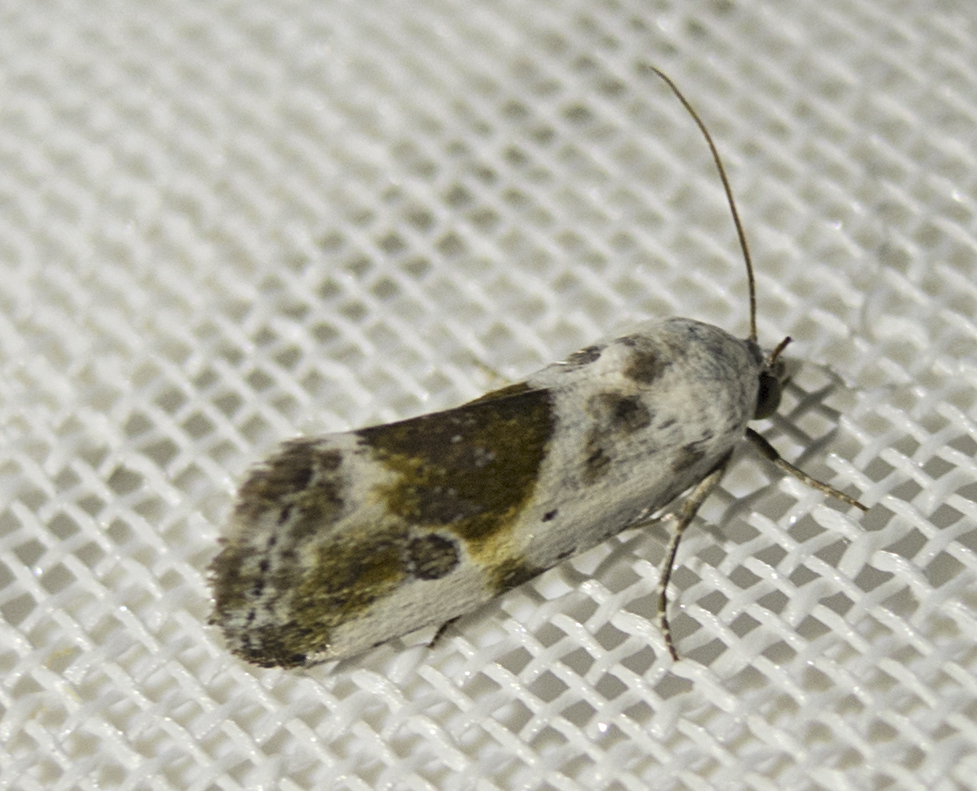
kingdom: Animalia
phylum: Arthropoda
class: Insecta
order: Lepidoptera
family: Noctuidae
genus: Acontia
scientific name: Acontia candefacta
